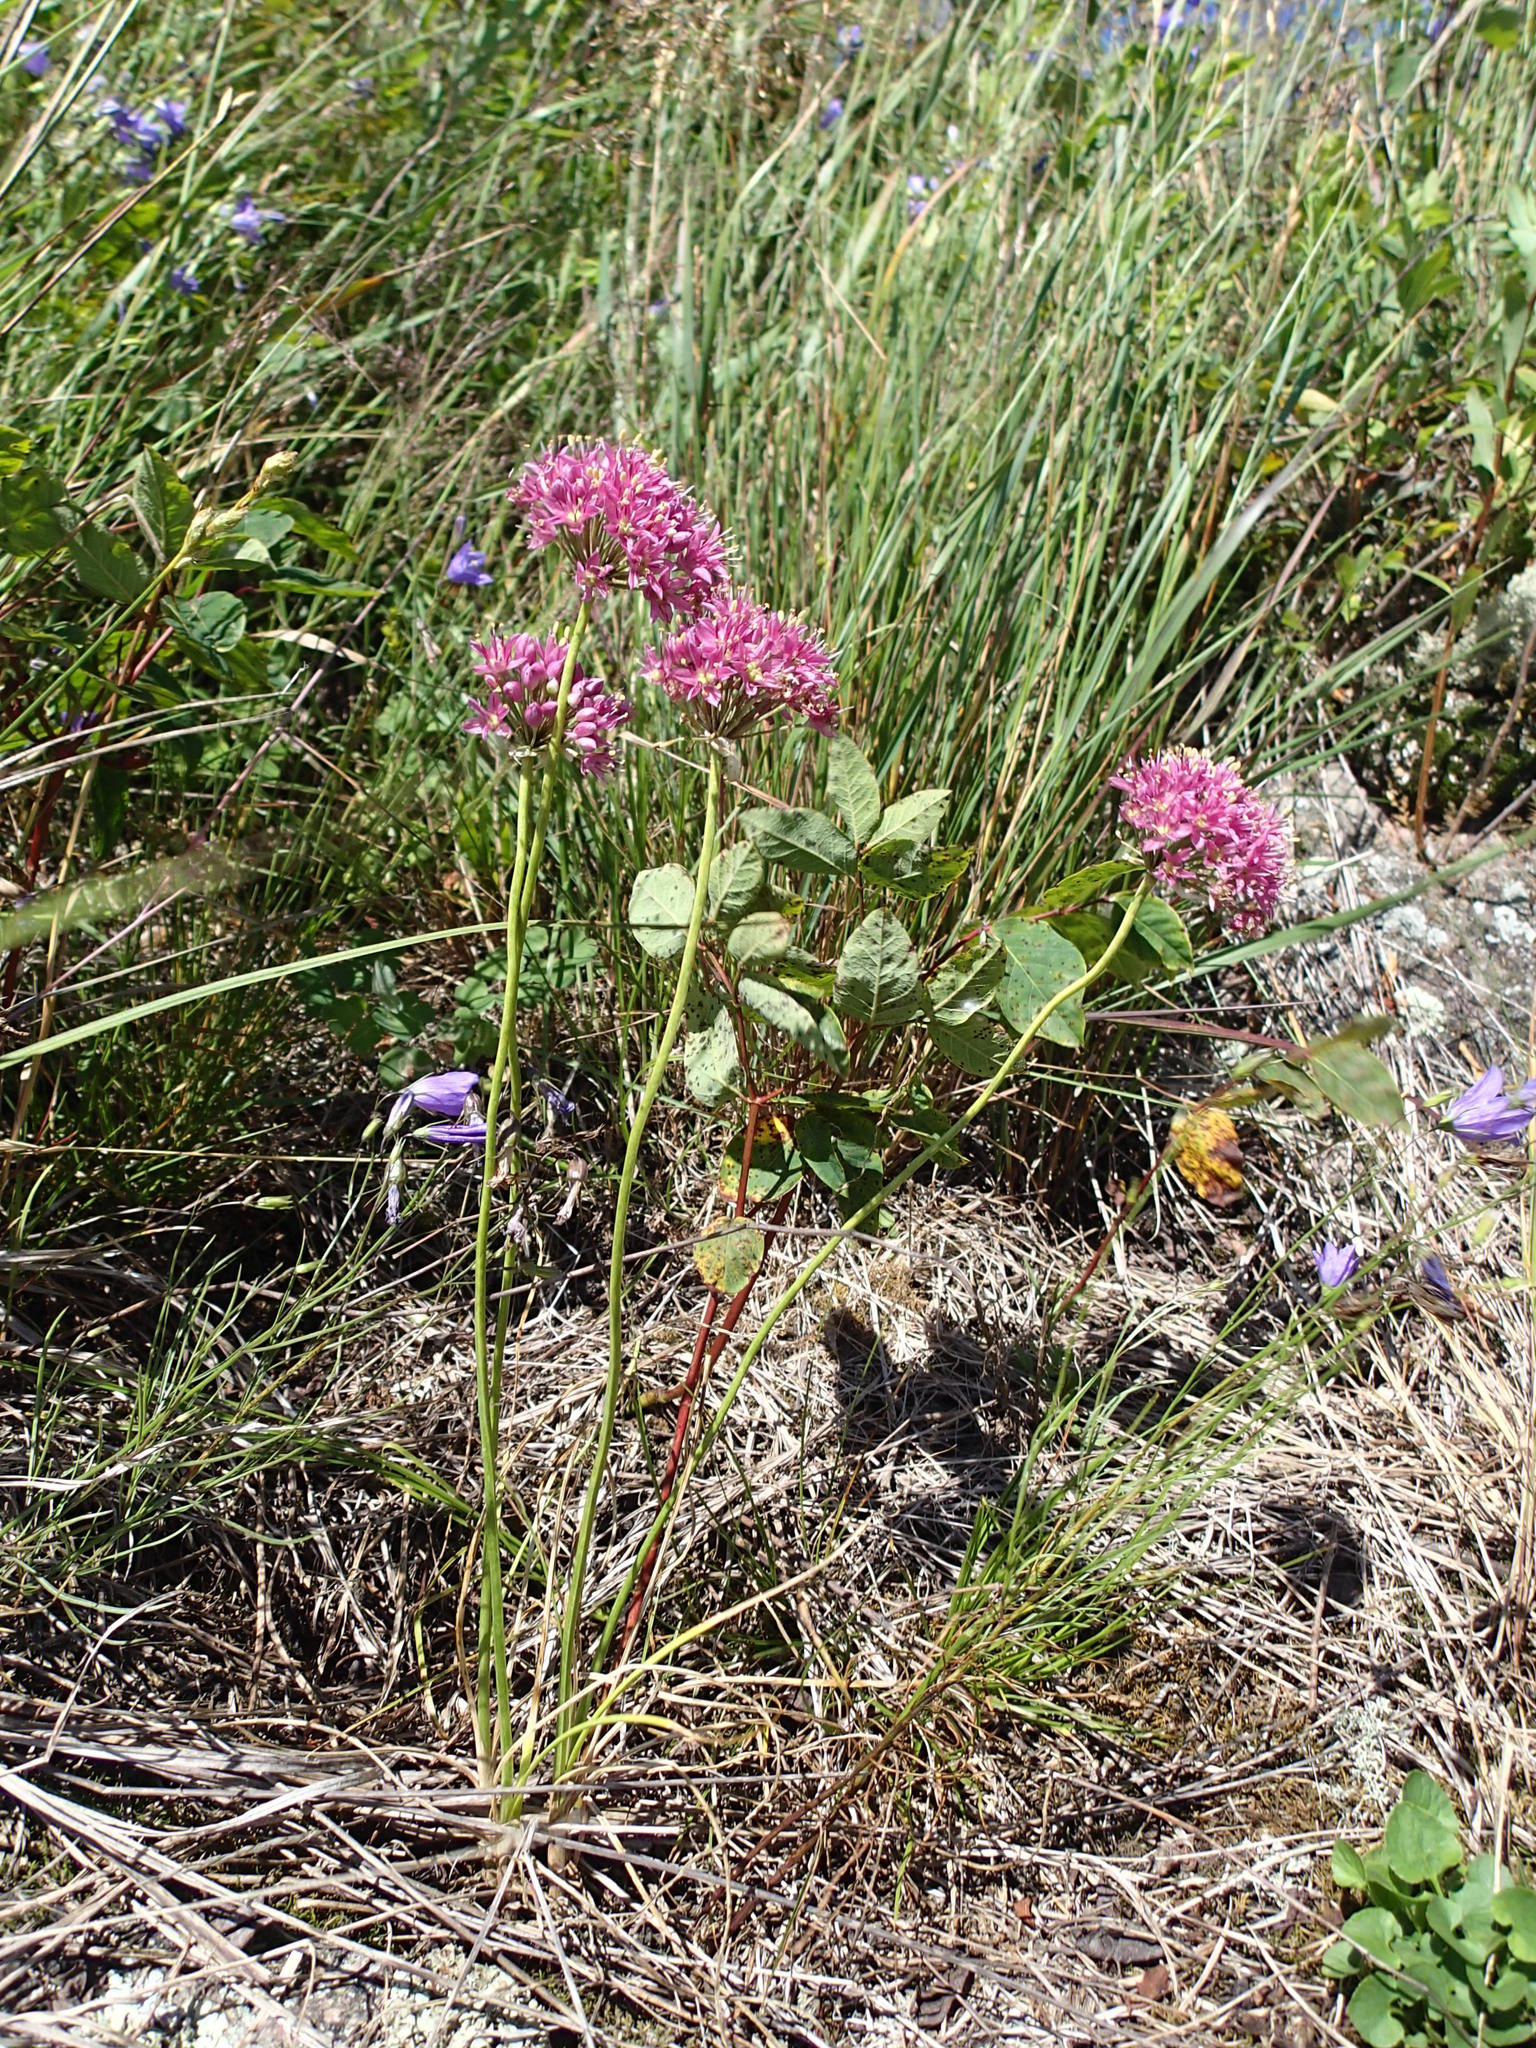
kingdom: Plantae
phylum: Tracheophyta
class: Liliopsida
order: Asparagales
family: Amaryllidaceae
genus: Allium
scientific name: Allium stellatum
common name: Autumn onion
